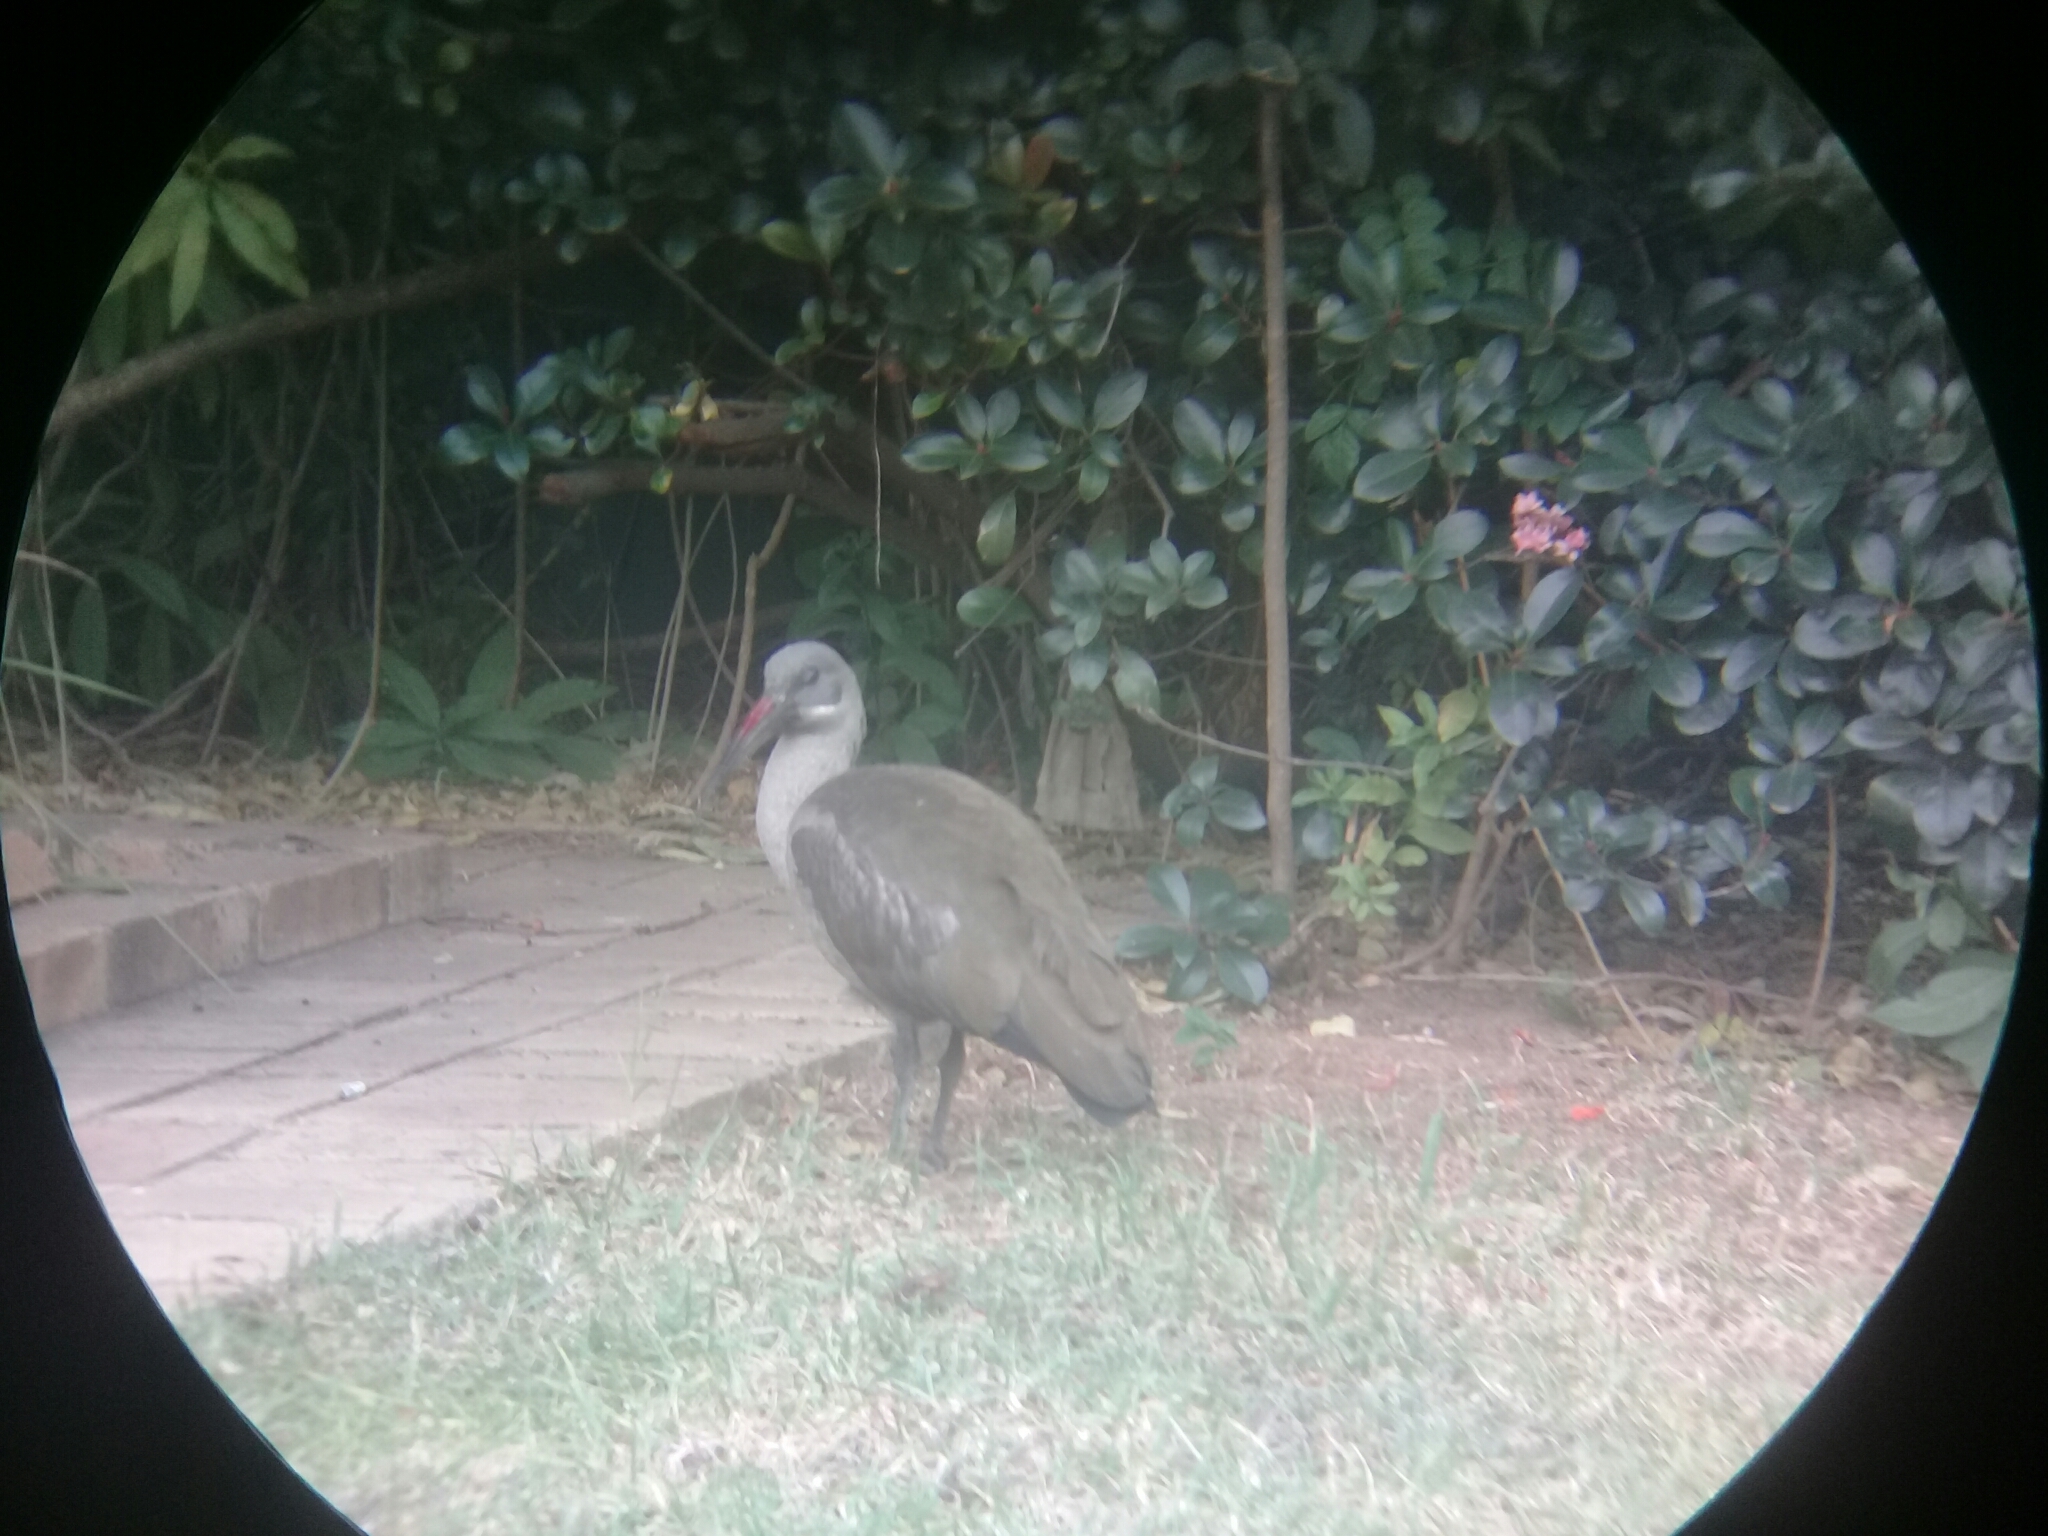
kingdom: Animalia
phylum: Chordata
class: Aves
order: Pelecaniformes
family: Threskiornithidae
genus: Bostrychia
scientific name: Bostrychia hagedash
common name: Hadada ibis
